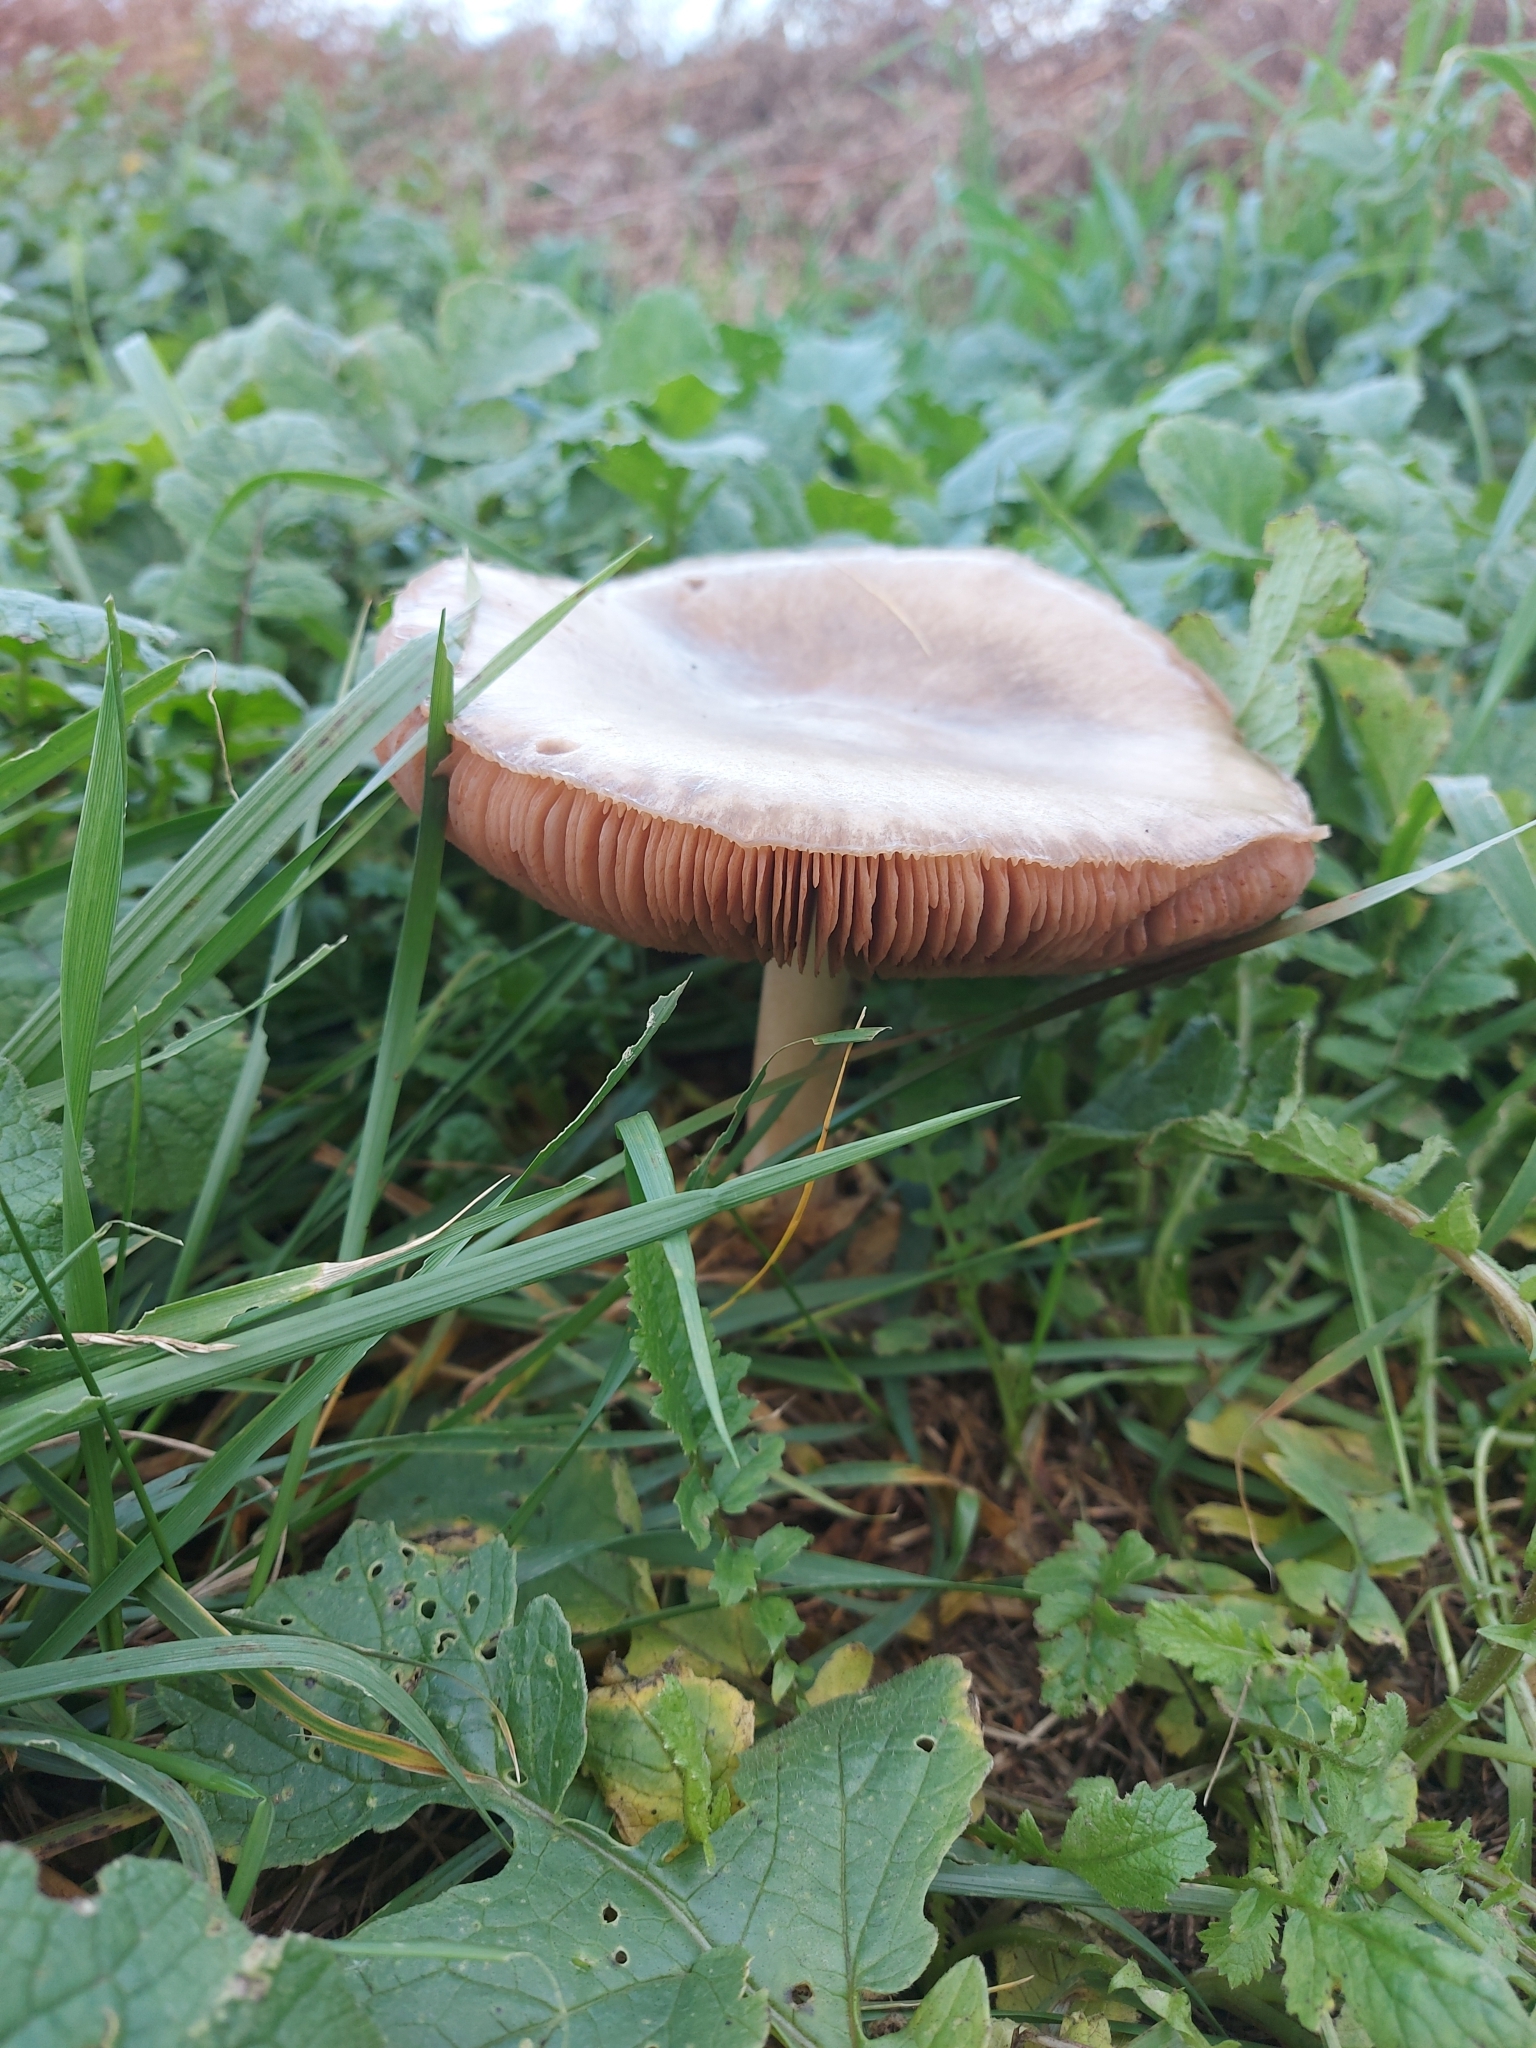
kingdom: Fungi
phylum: Basidiomycota
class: Agaricomycetes
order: Agaricales
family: Pluteaceae
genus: Volvopluteus
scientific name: Volvopluteus gloiocephalus
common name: Stubble rosegill
